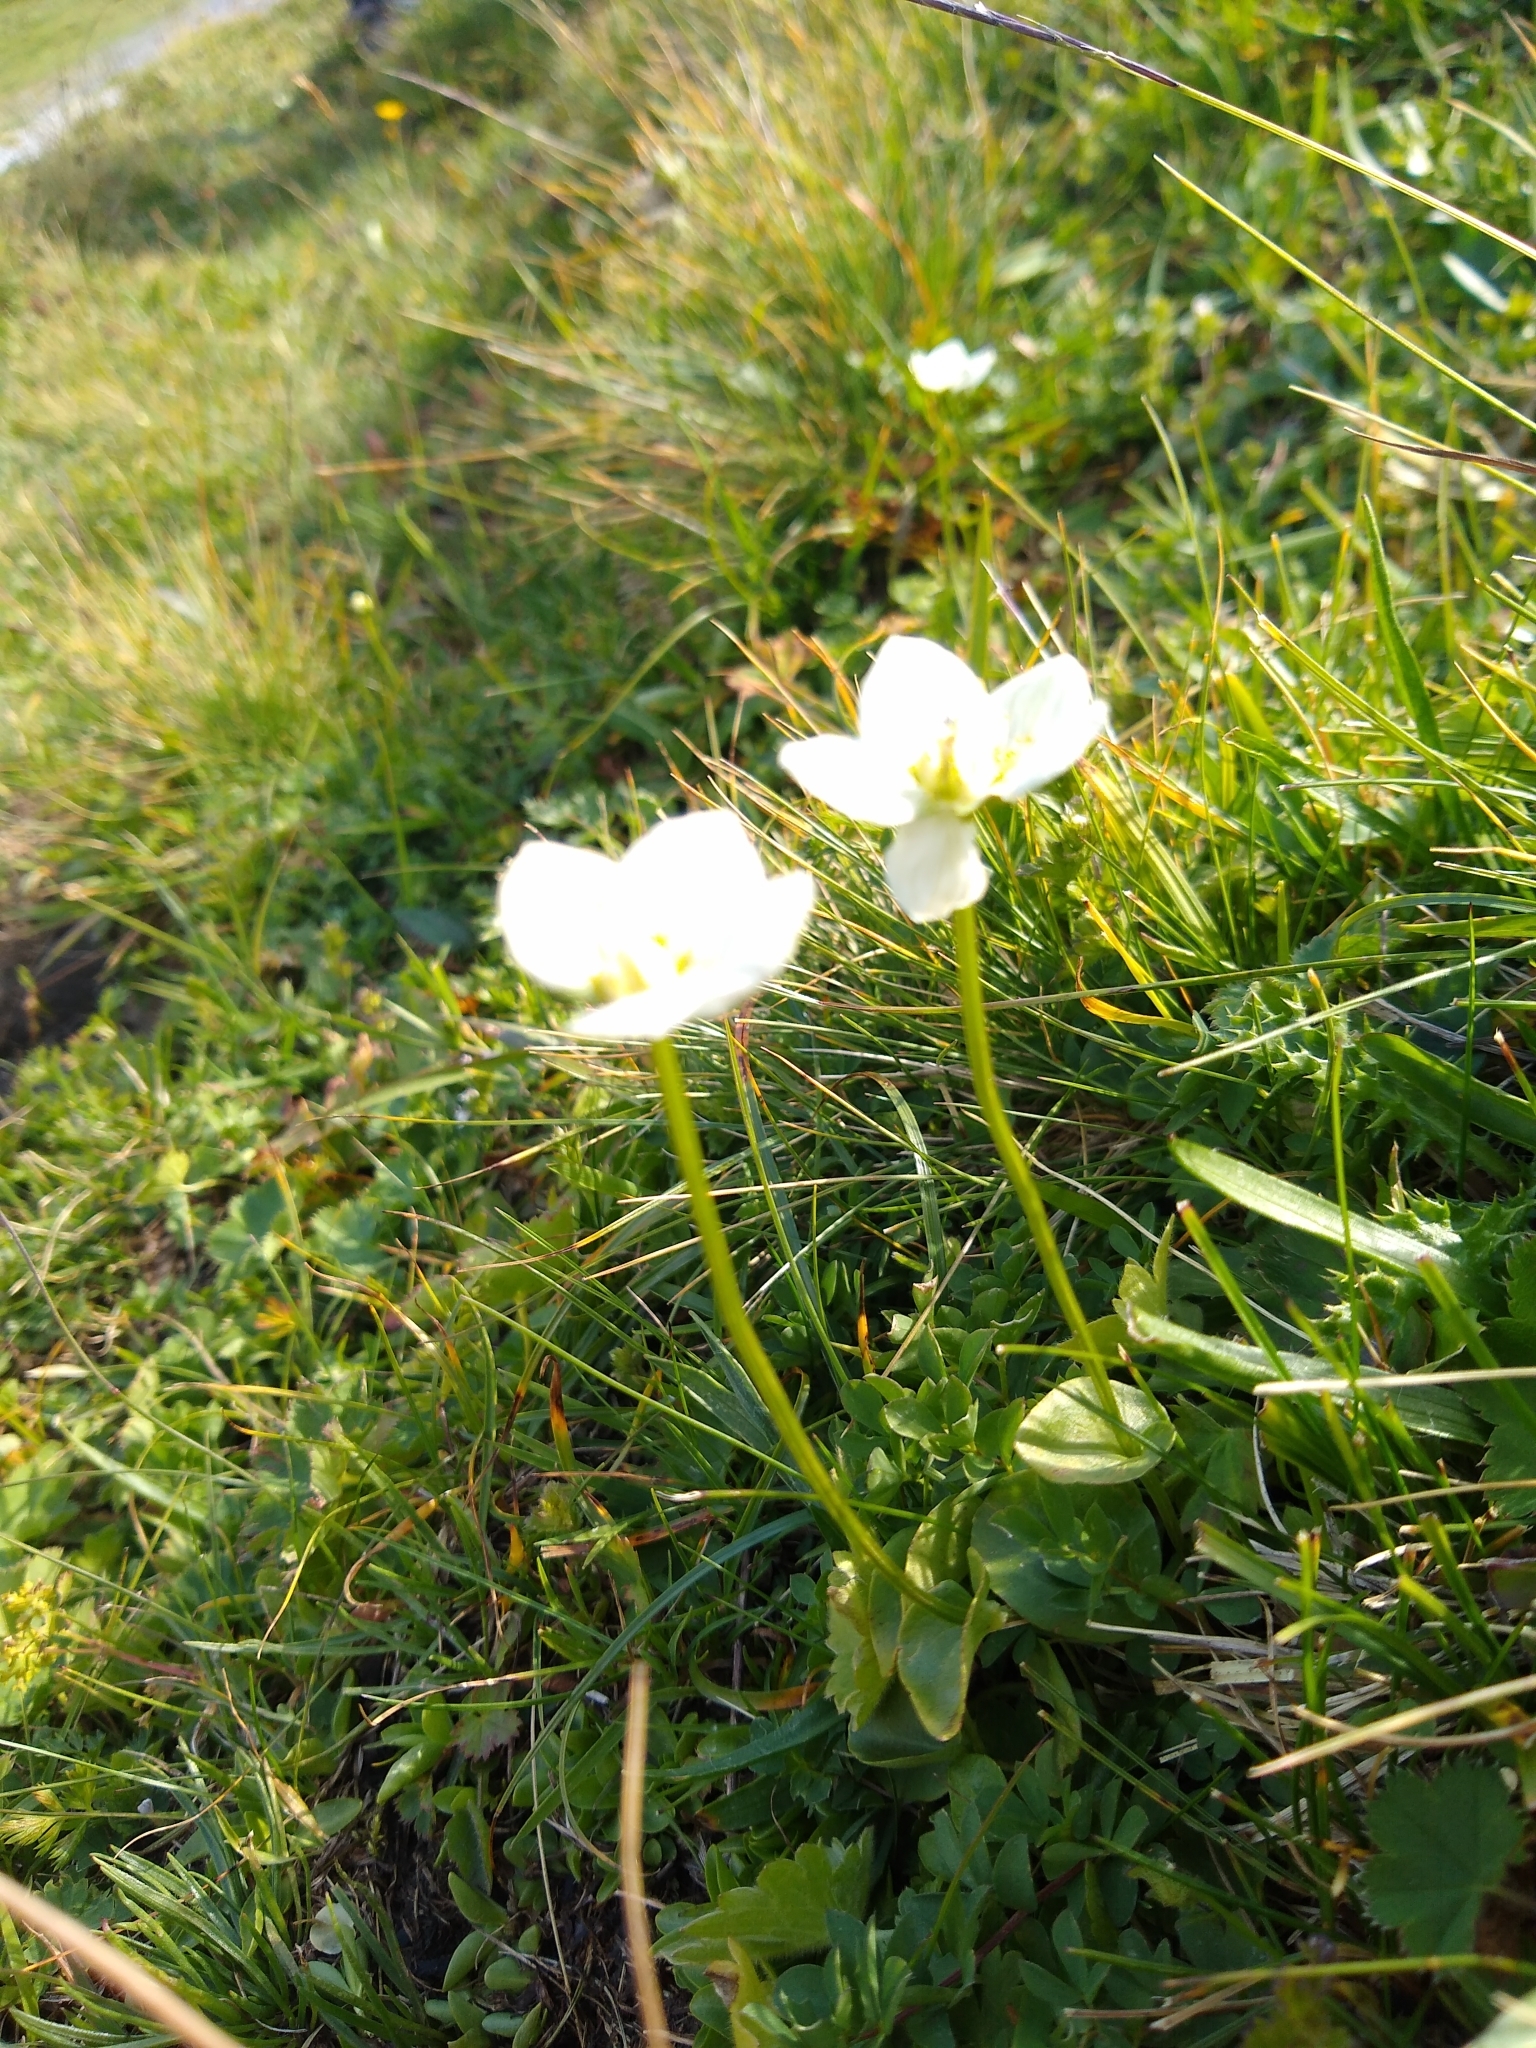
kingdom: Plantae
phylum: Tracheophyta
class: Magnoliopsida
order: Celastrales
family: Parnassiaceae
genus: Parnassia
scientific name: Parnassia palustris
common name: Grass-of-parnassus
